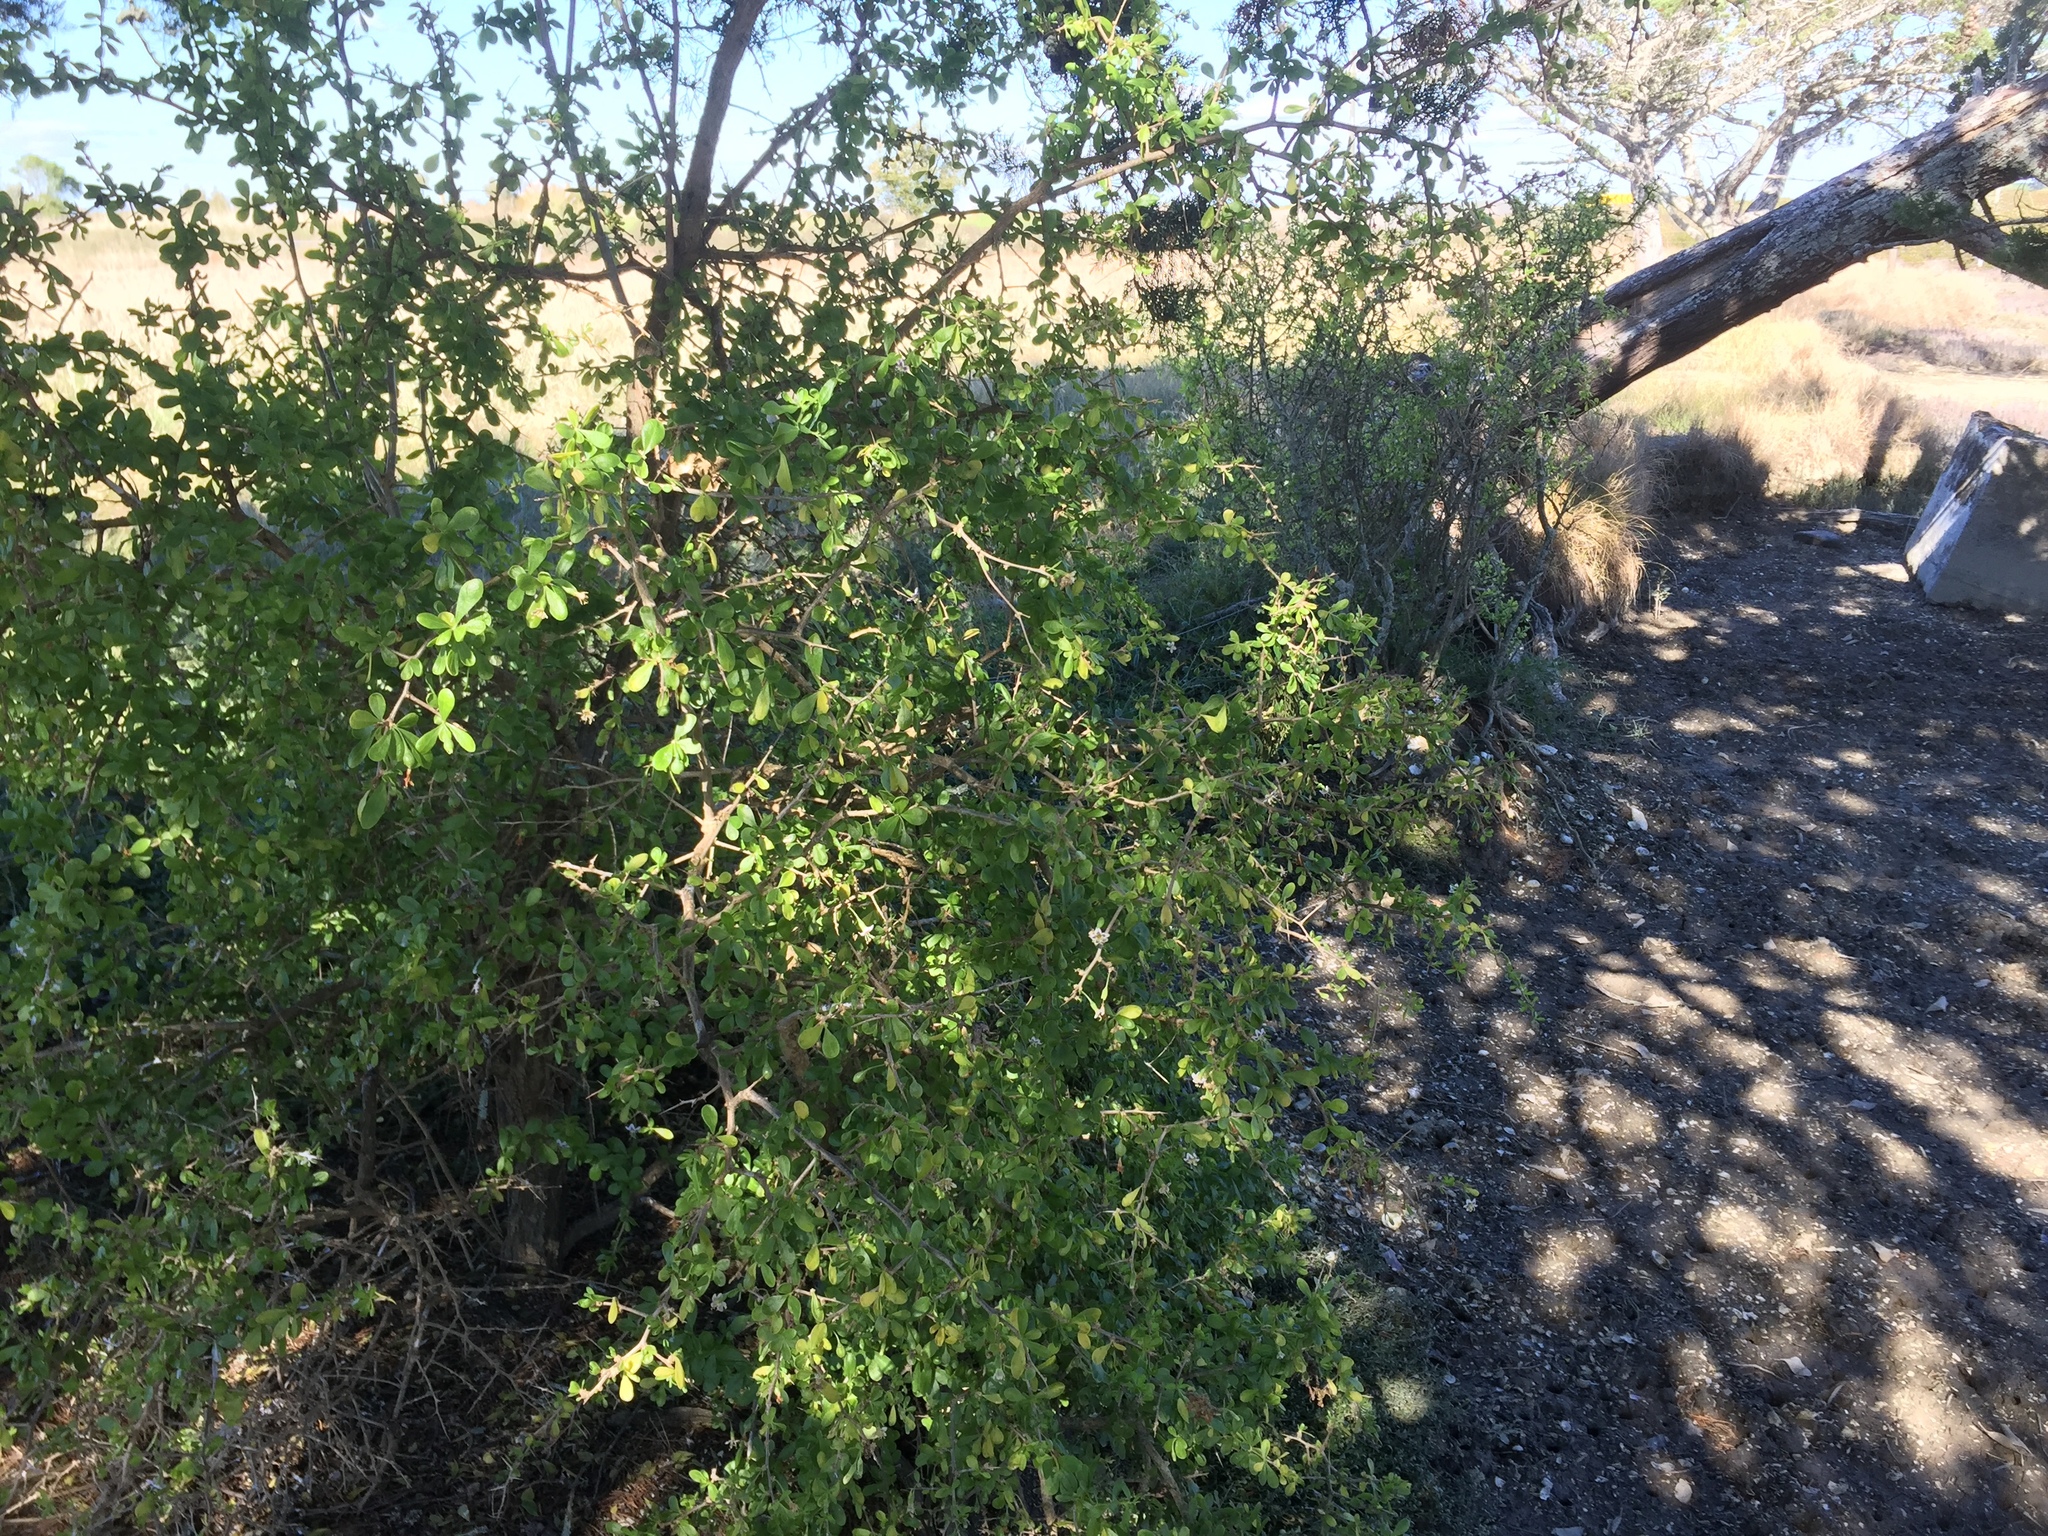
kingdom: Plantae
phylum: Tracheophyta
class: Magnoliopsida
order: Solanales
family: Solanaceae
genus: Lycium
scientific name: Lycium ferocissimum
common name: African boxthorn
